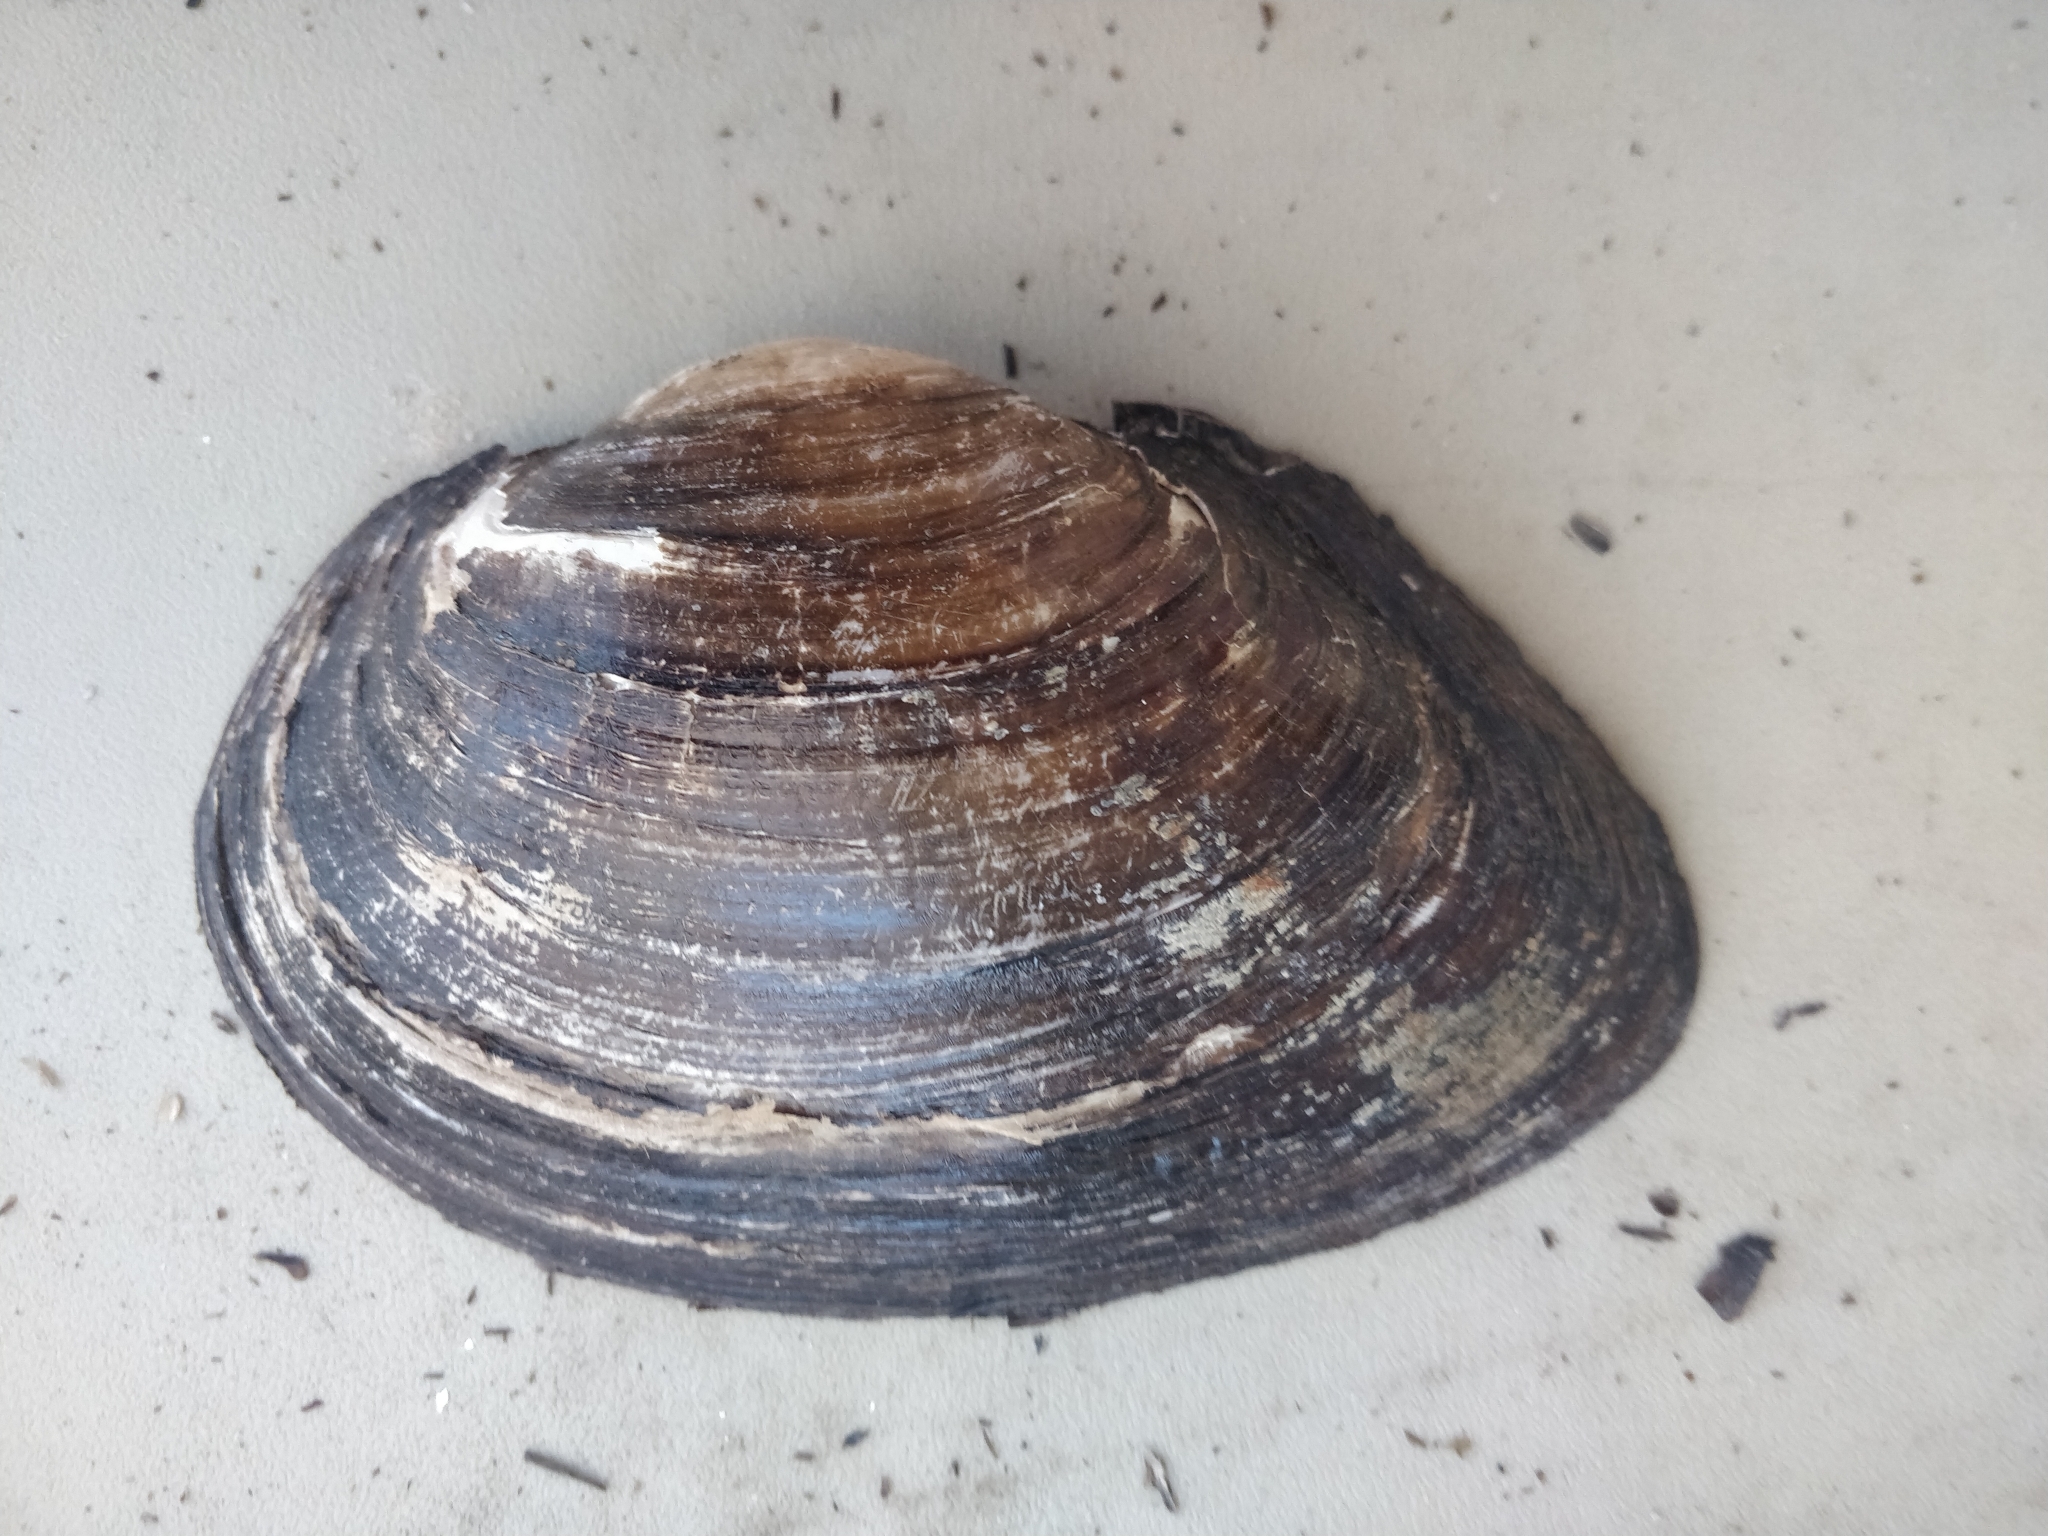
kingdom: Animalia
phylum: Mollusca
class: Bivalvia
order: Unionida
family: Unionidae
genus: Pyganodon
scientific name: Pyganodon grandis
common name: Giant floater
